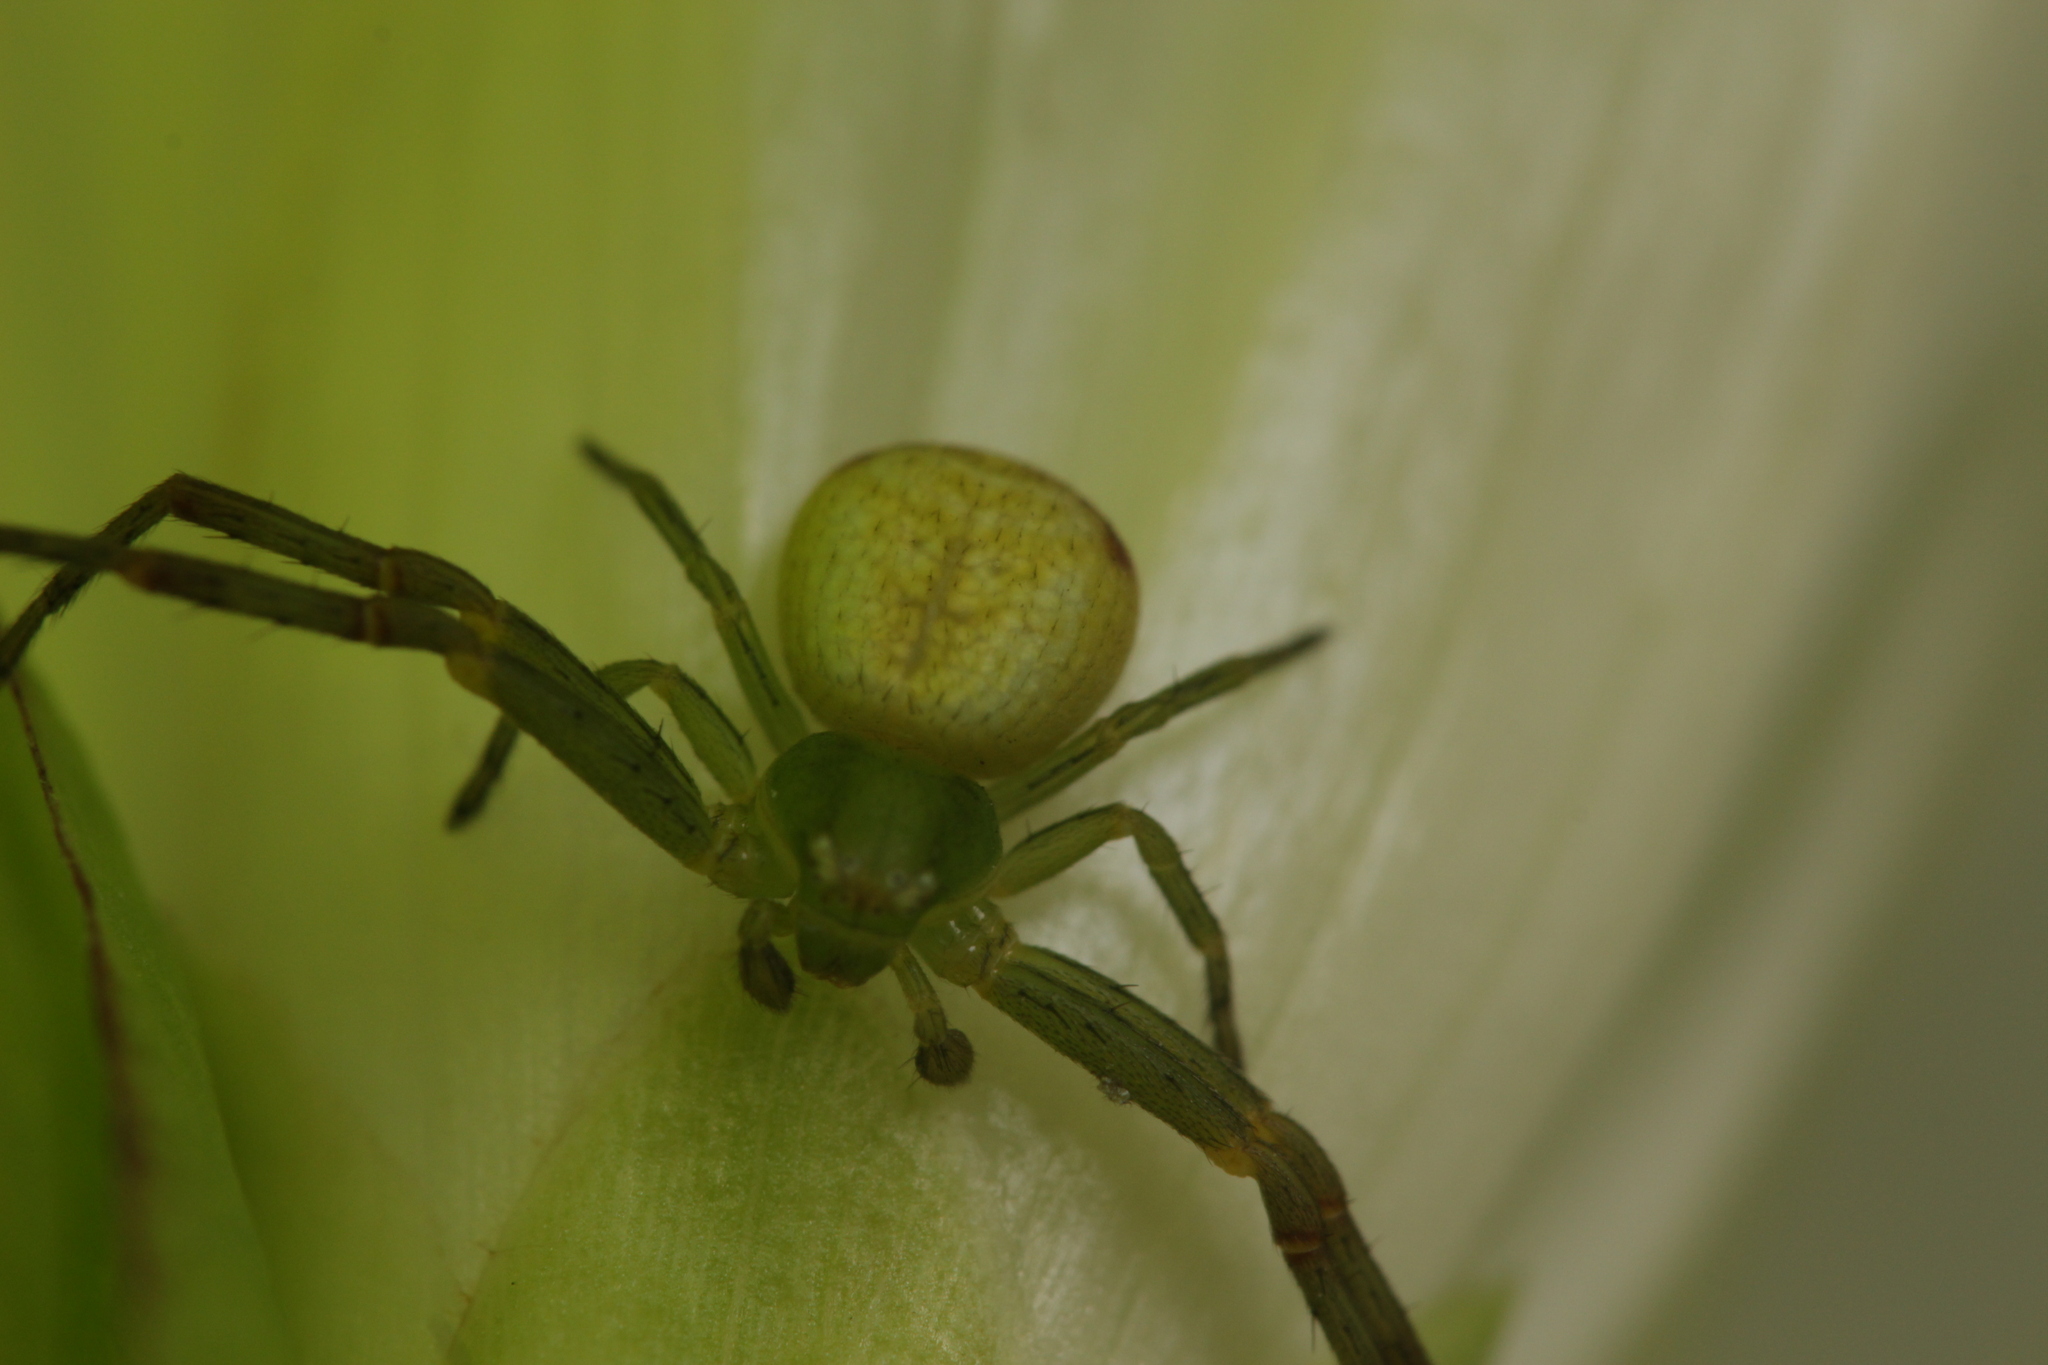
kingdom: Animalia
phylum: Arthropoda
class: Arachnida
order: Araneae
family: Thomisidae
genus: Ebrechtella
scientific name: Ebrechtella tricuspidata
